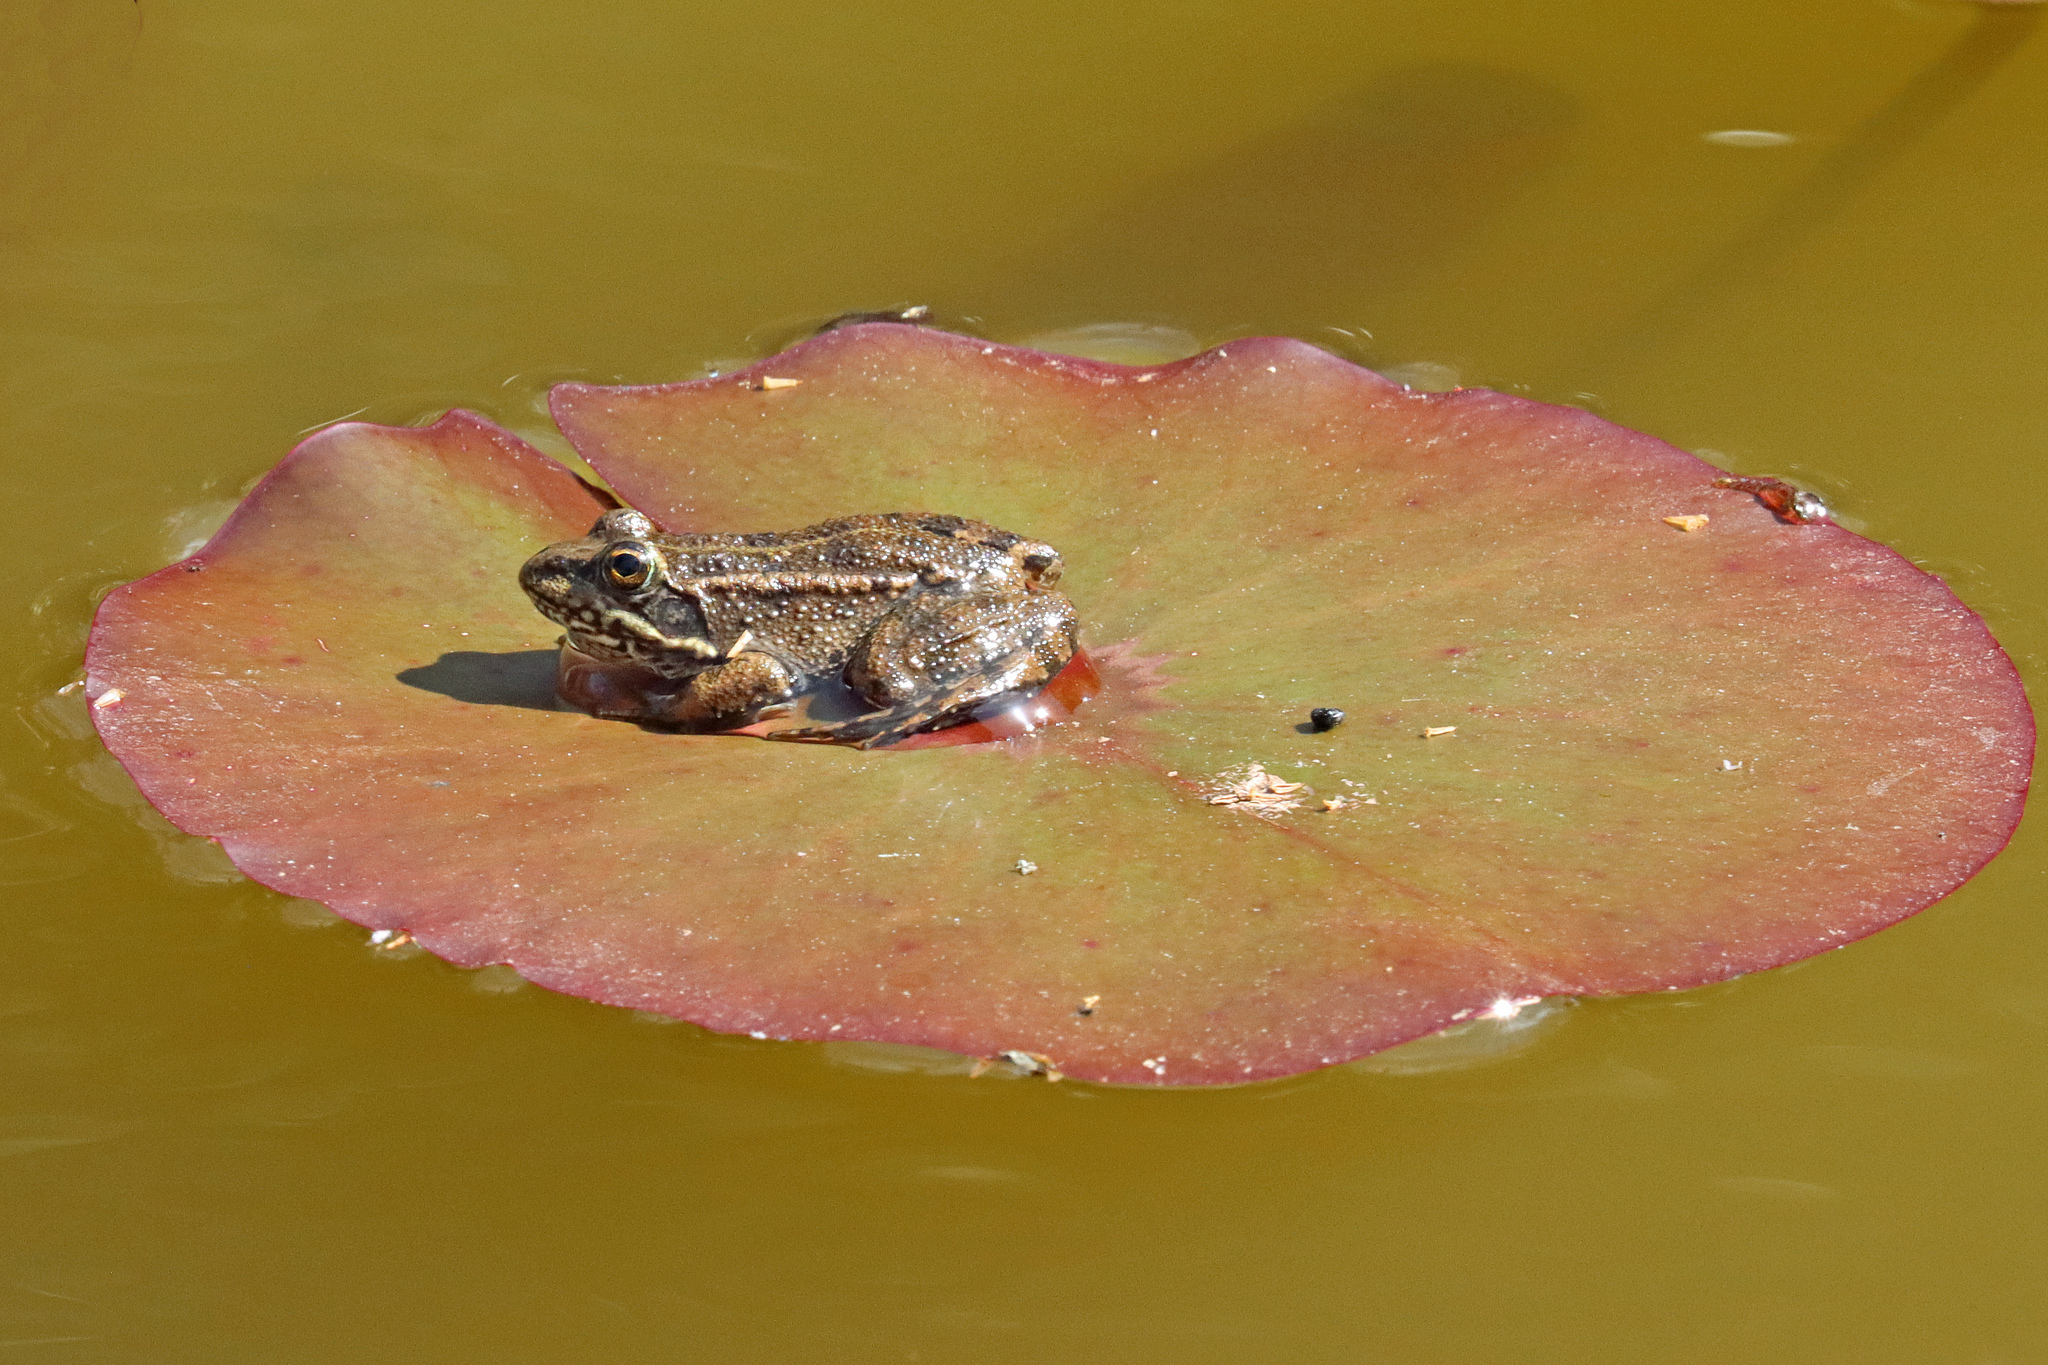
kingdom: Animalia
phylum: Chordata
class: Amphibia
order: Anura
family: Ranidae
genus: Pelophylax
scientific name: Pelophylax perezi
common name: Perez's frog
